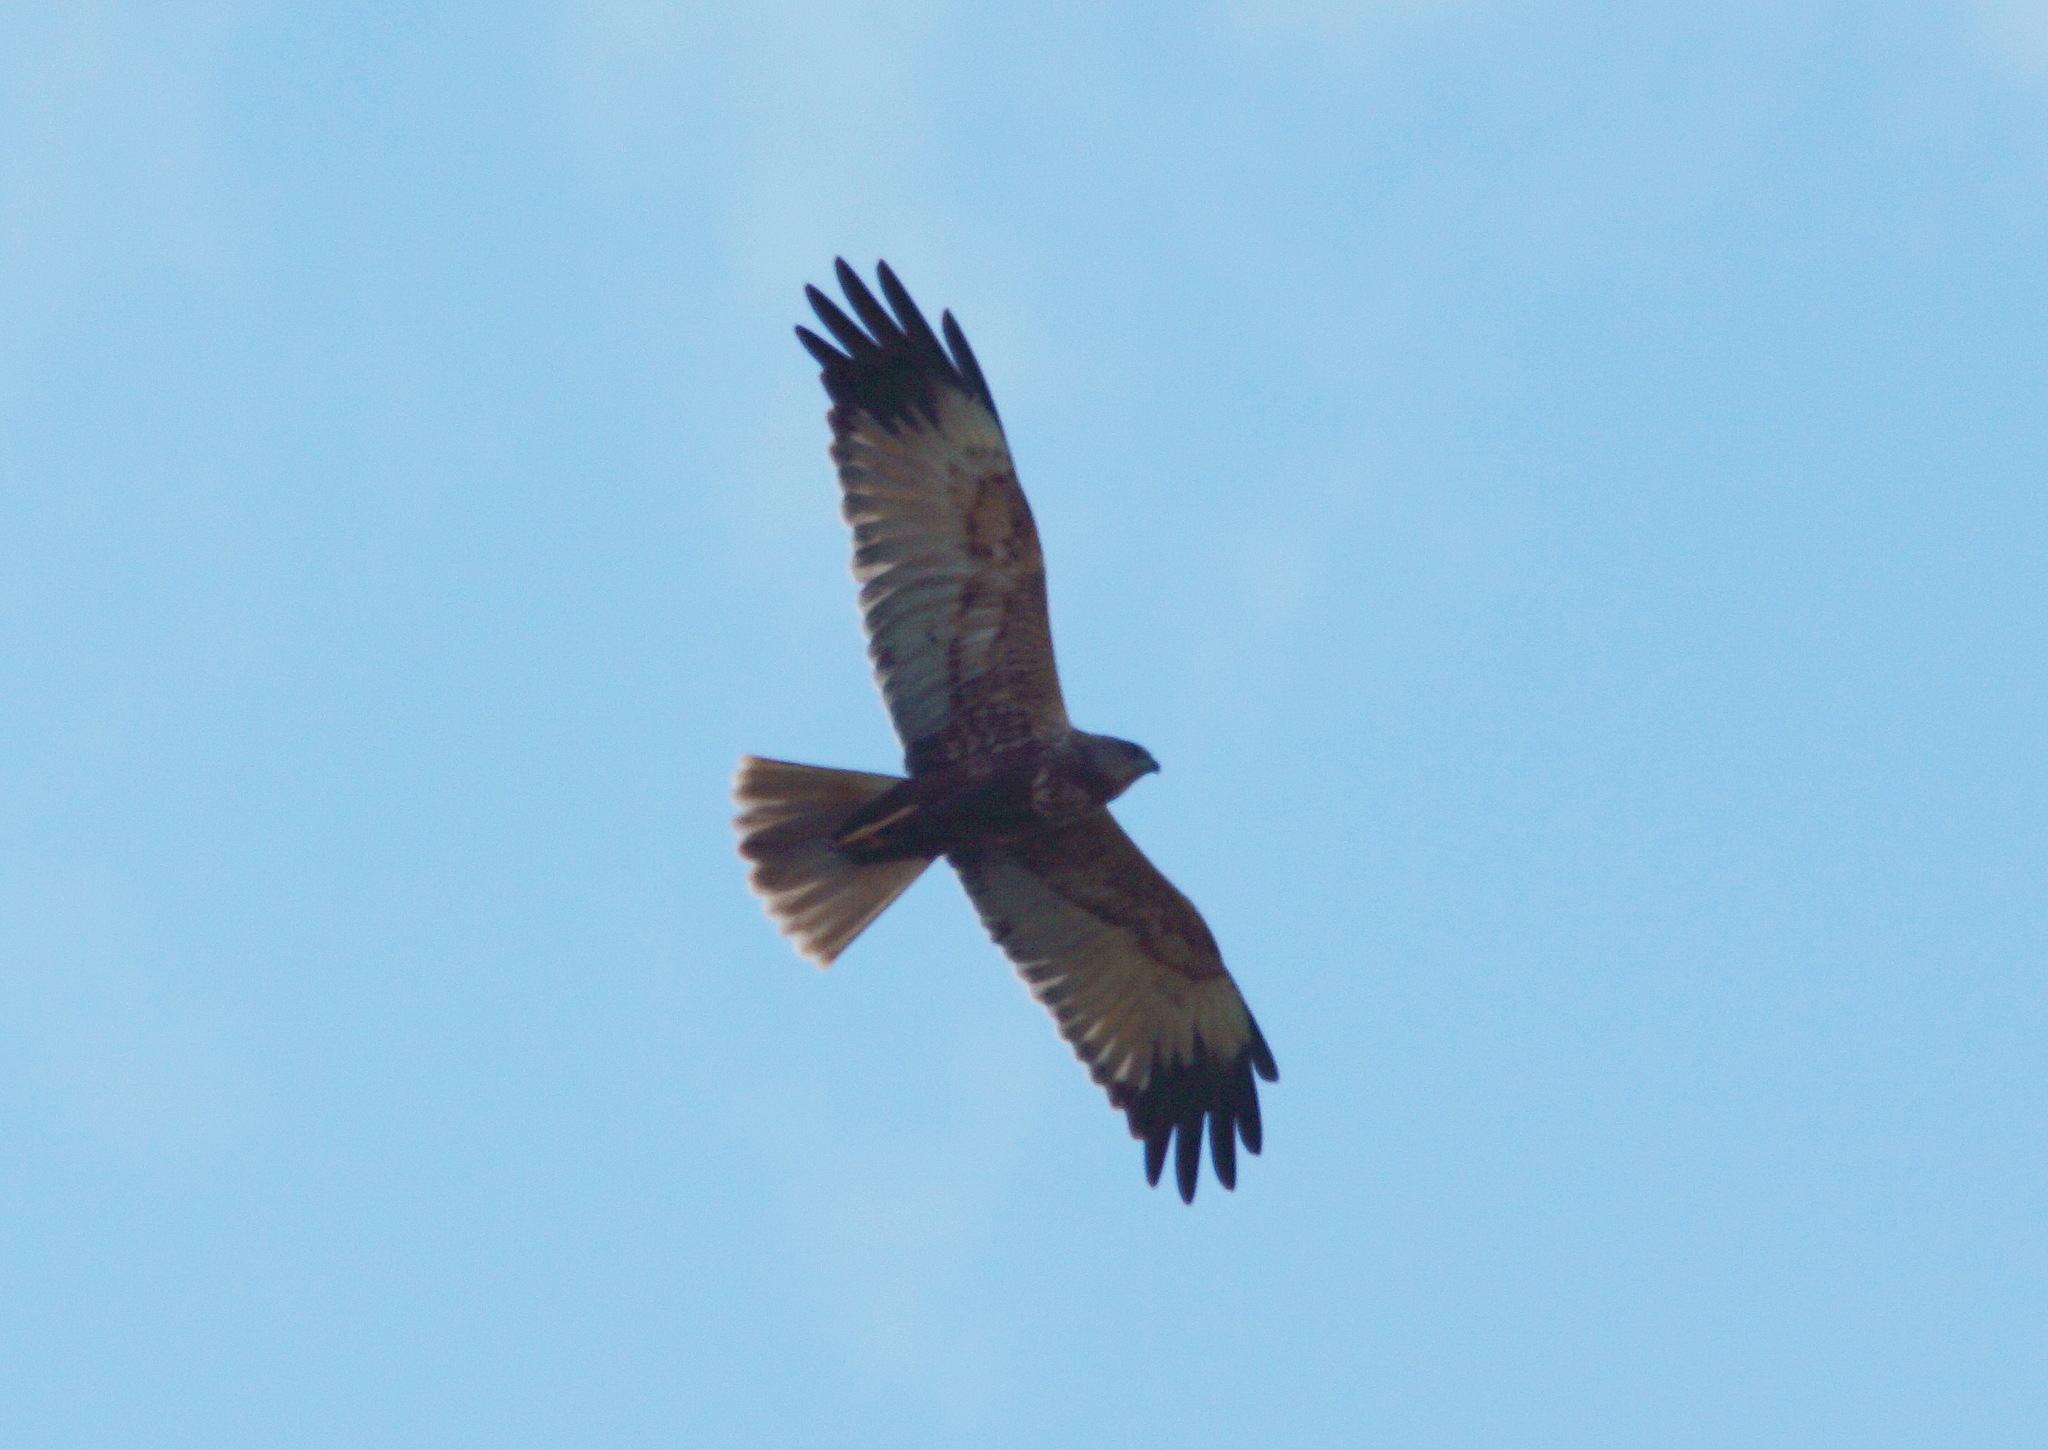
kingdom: Animalia
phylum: Chordata
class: Aves
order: Accipitriformes
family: Accipitridae
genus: Circus
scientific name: Circus aeruginosus
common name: Western marsh harrier
